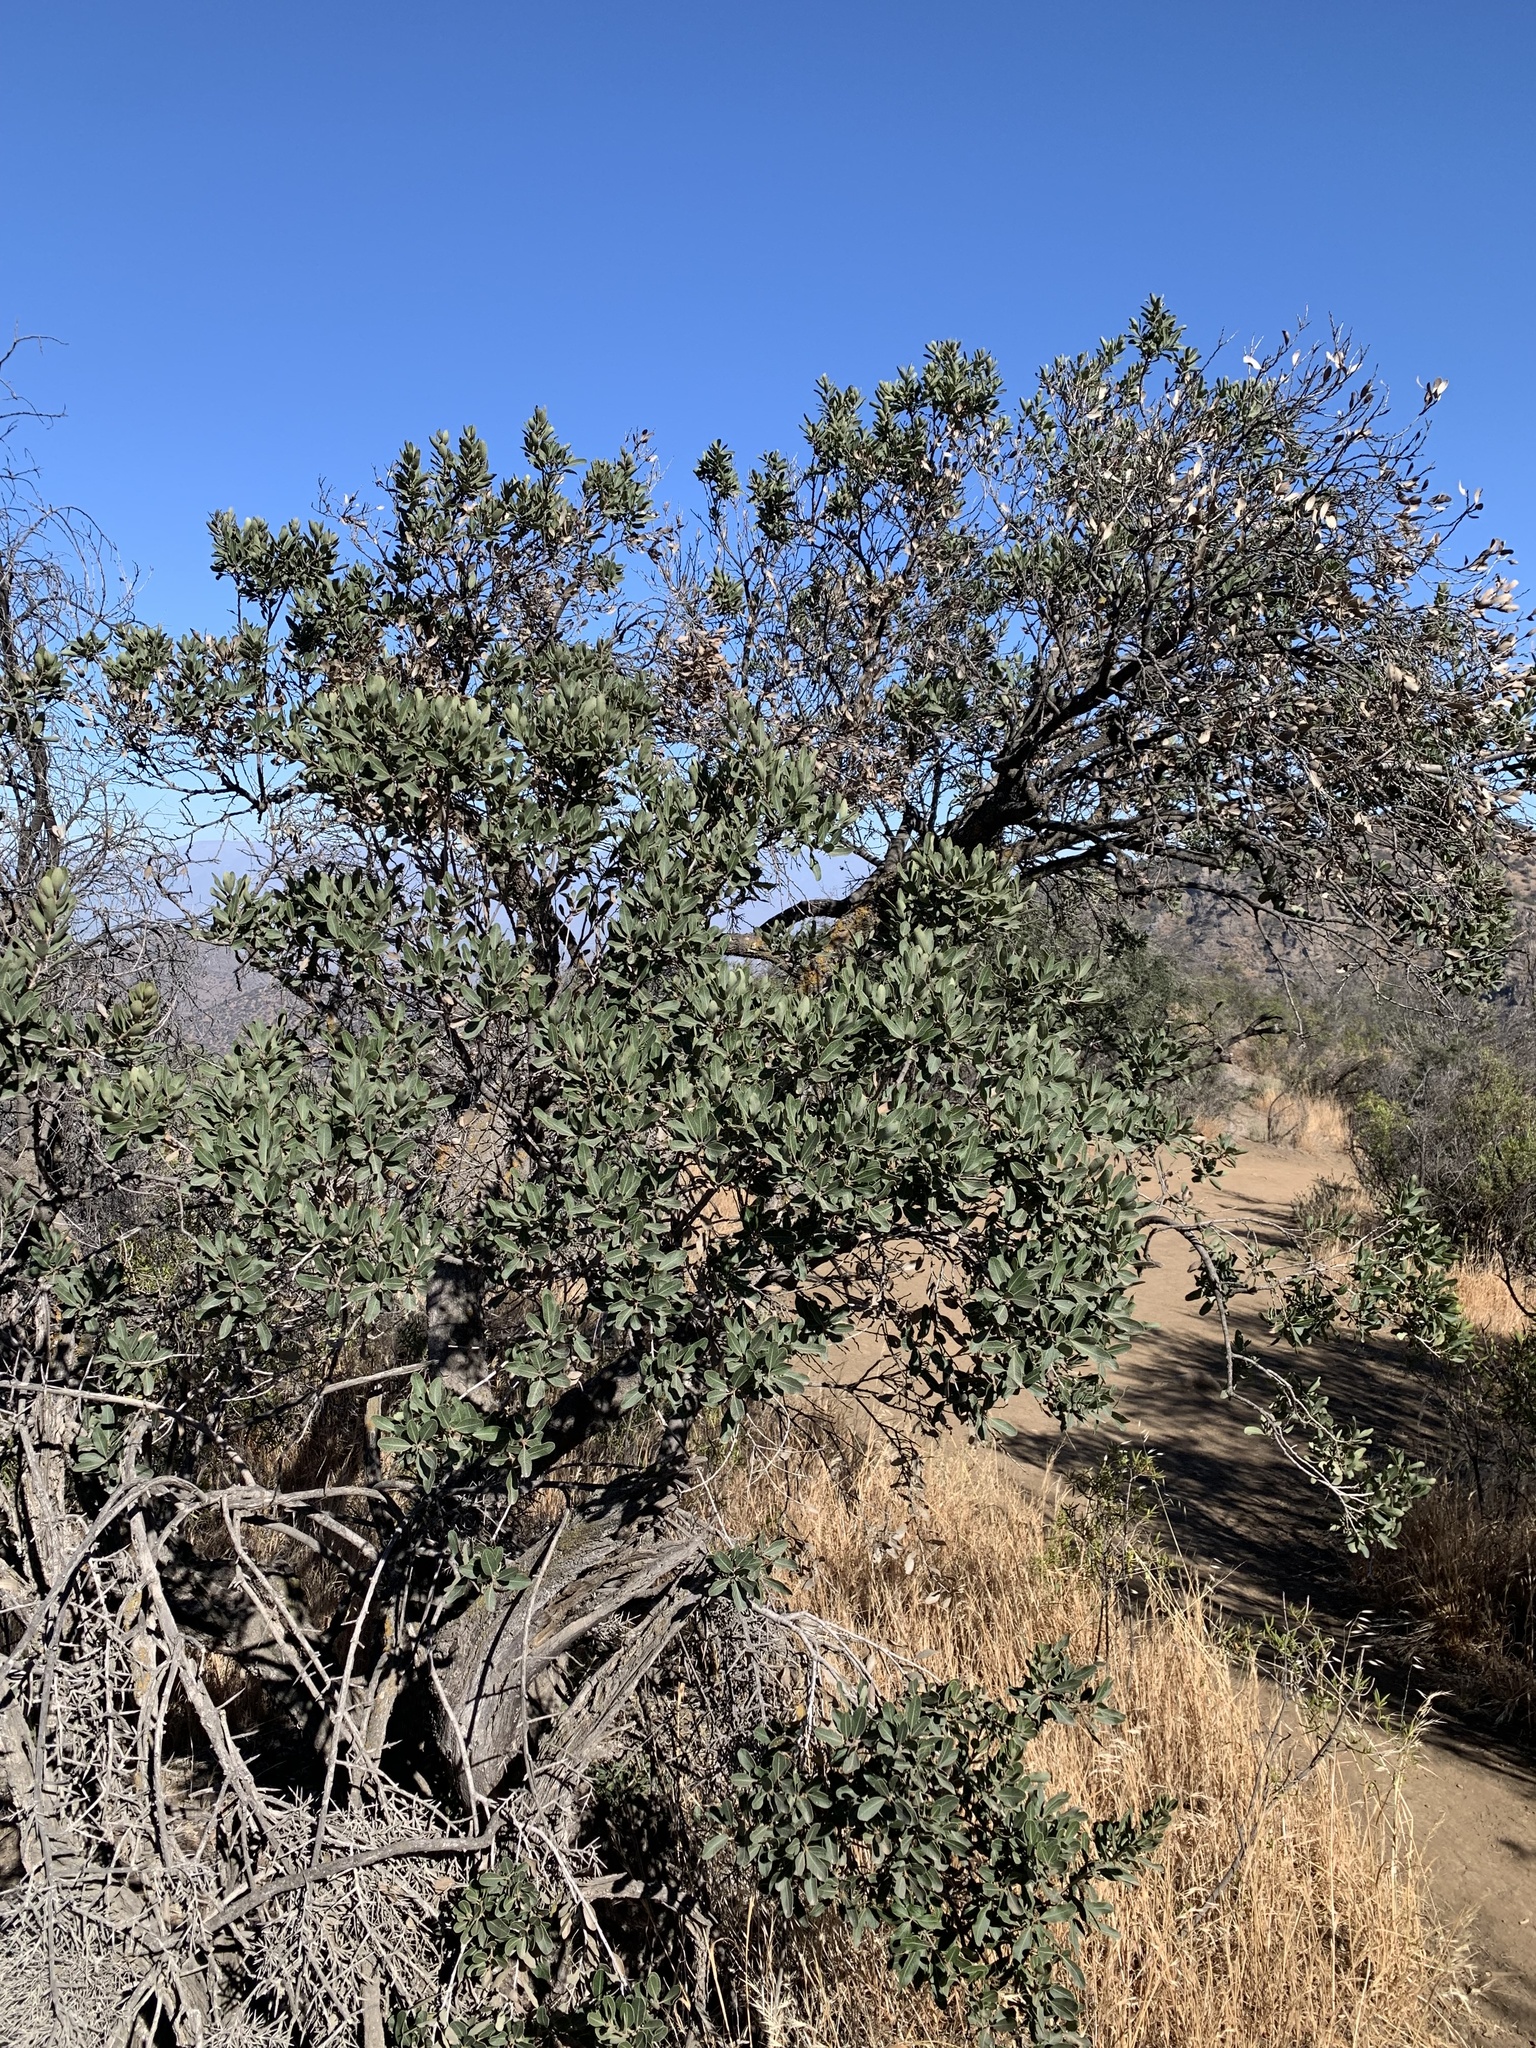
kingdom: Plantae
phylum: Tracheophyta
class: Magnoliopsida
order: Sapindales
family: Anacardiaceae
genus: Lithraea
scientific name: Lithraea caustica
